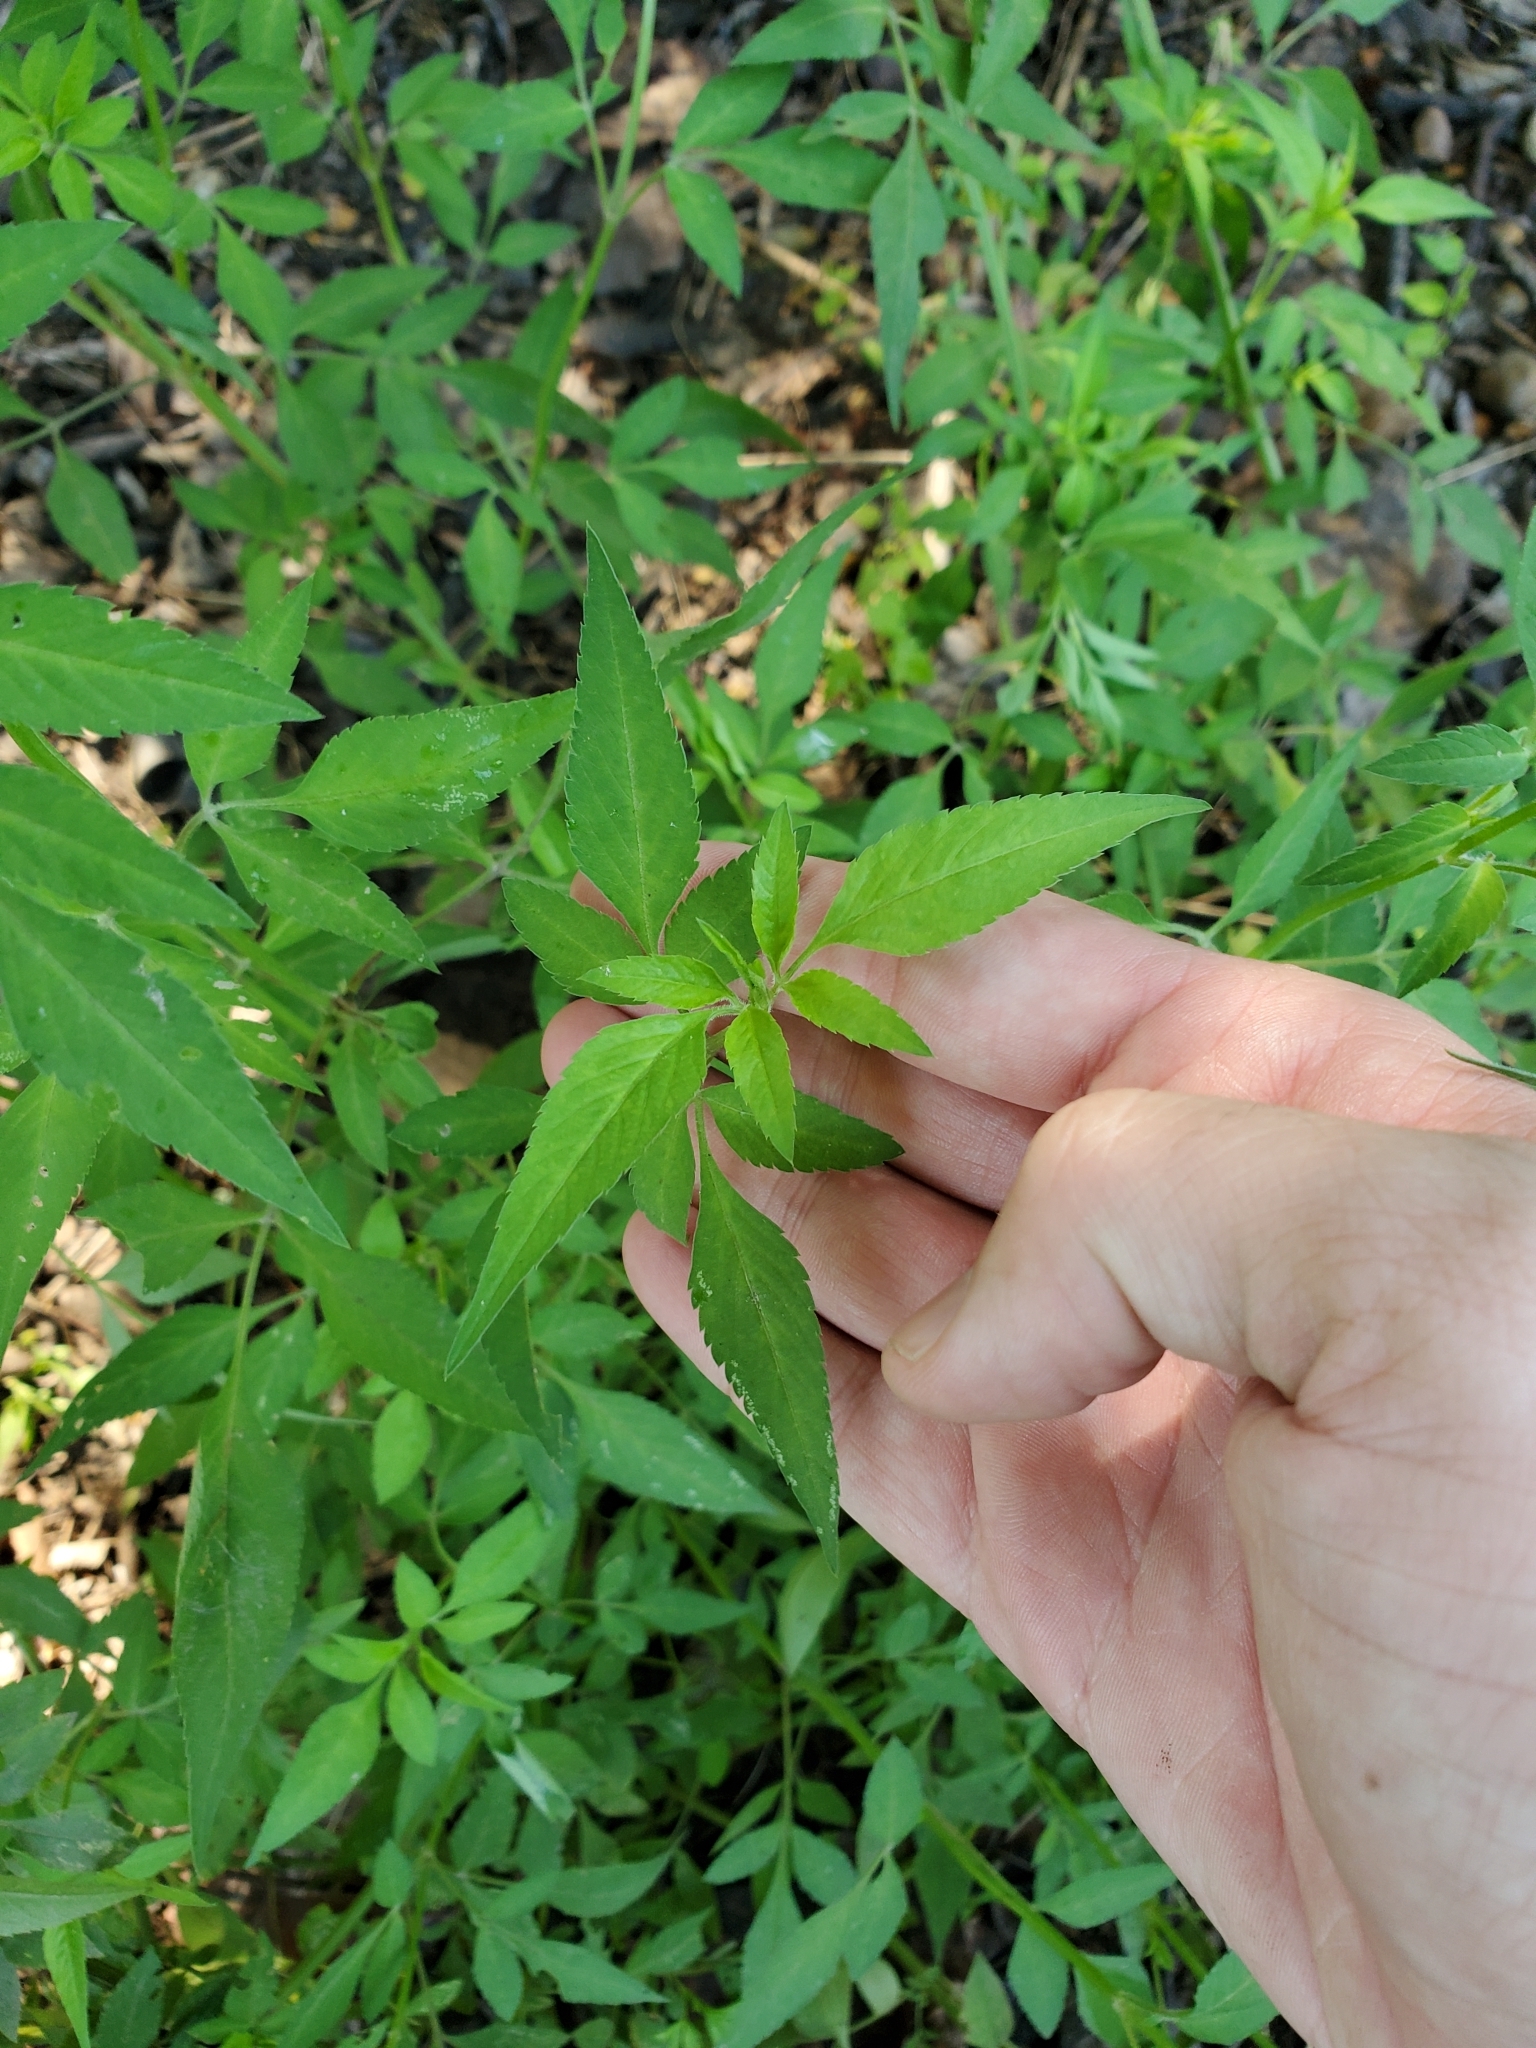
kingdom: Plantae
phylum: Tracheophyta
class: Magnoliopsida
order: Asterales
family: Asteraceae
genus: Bidens
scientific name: Bidens alba
